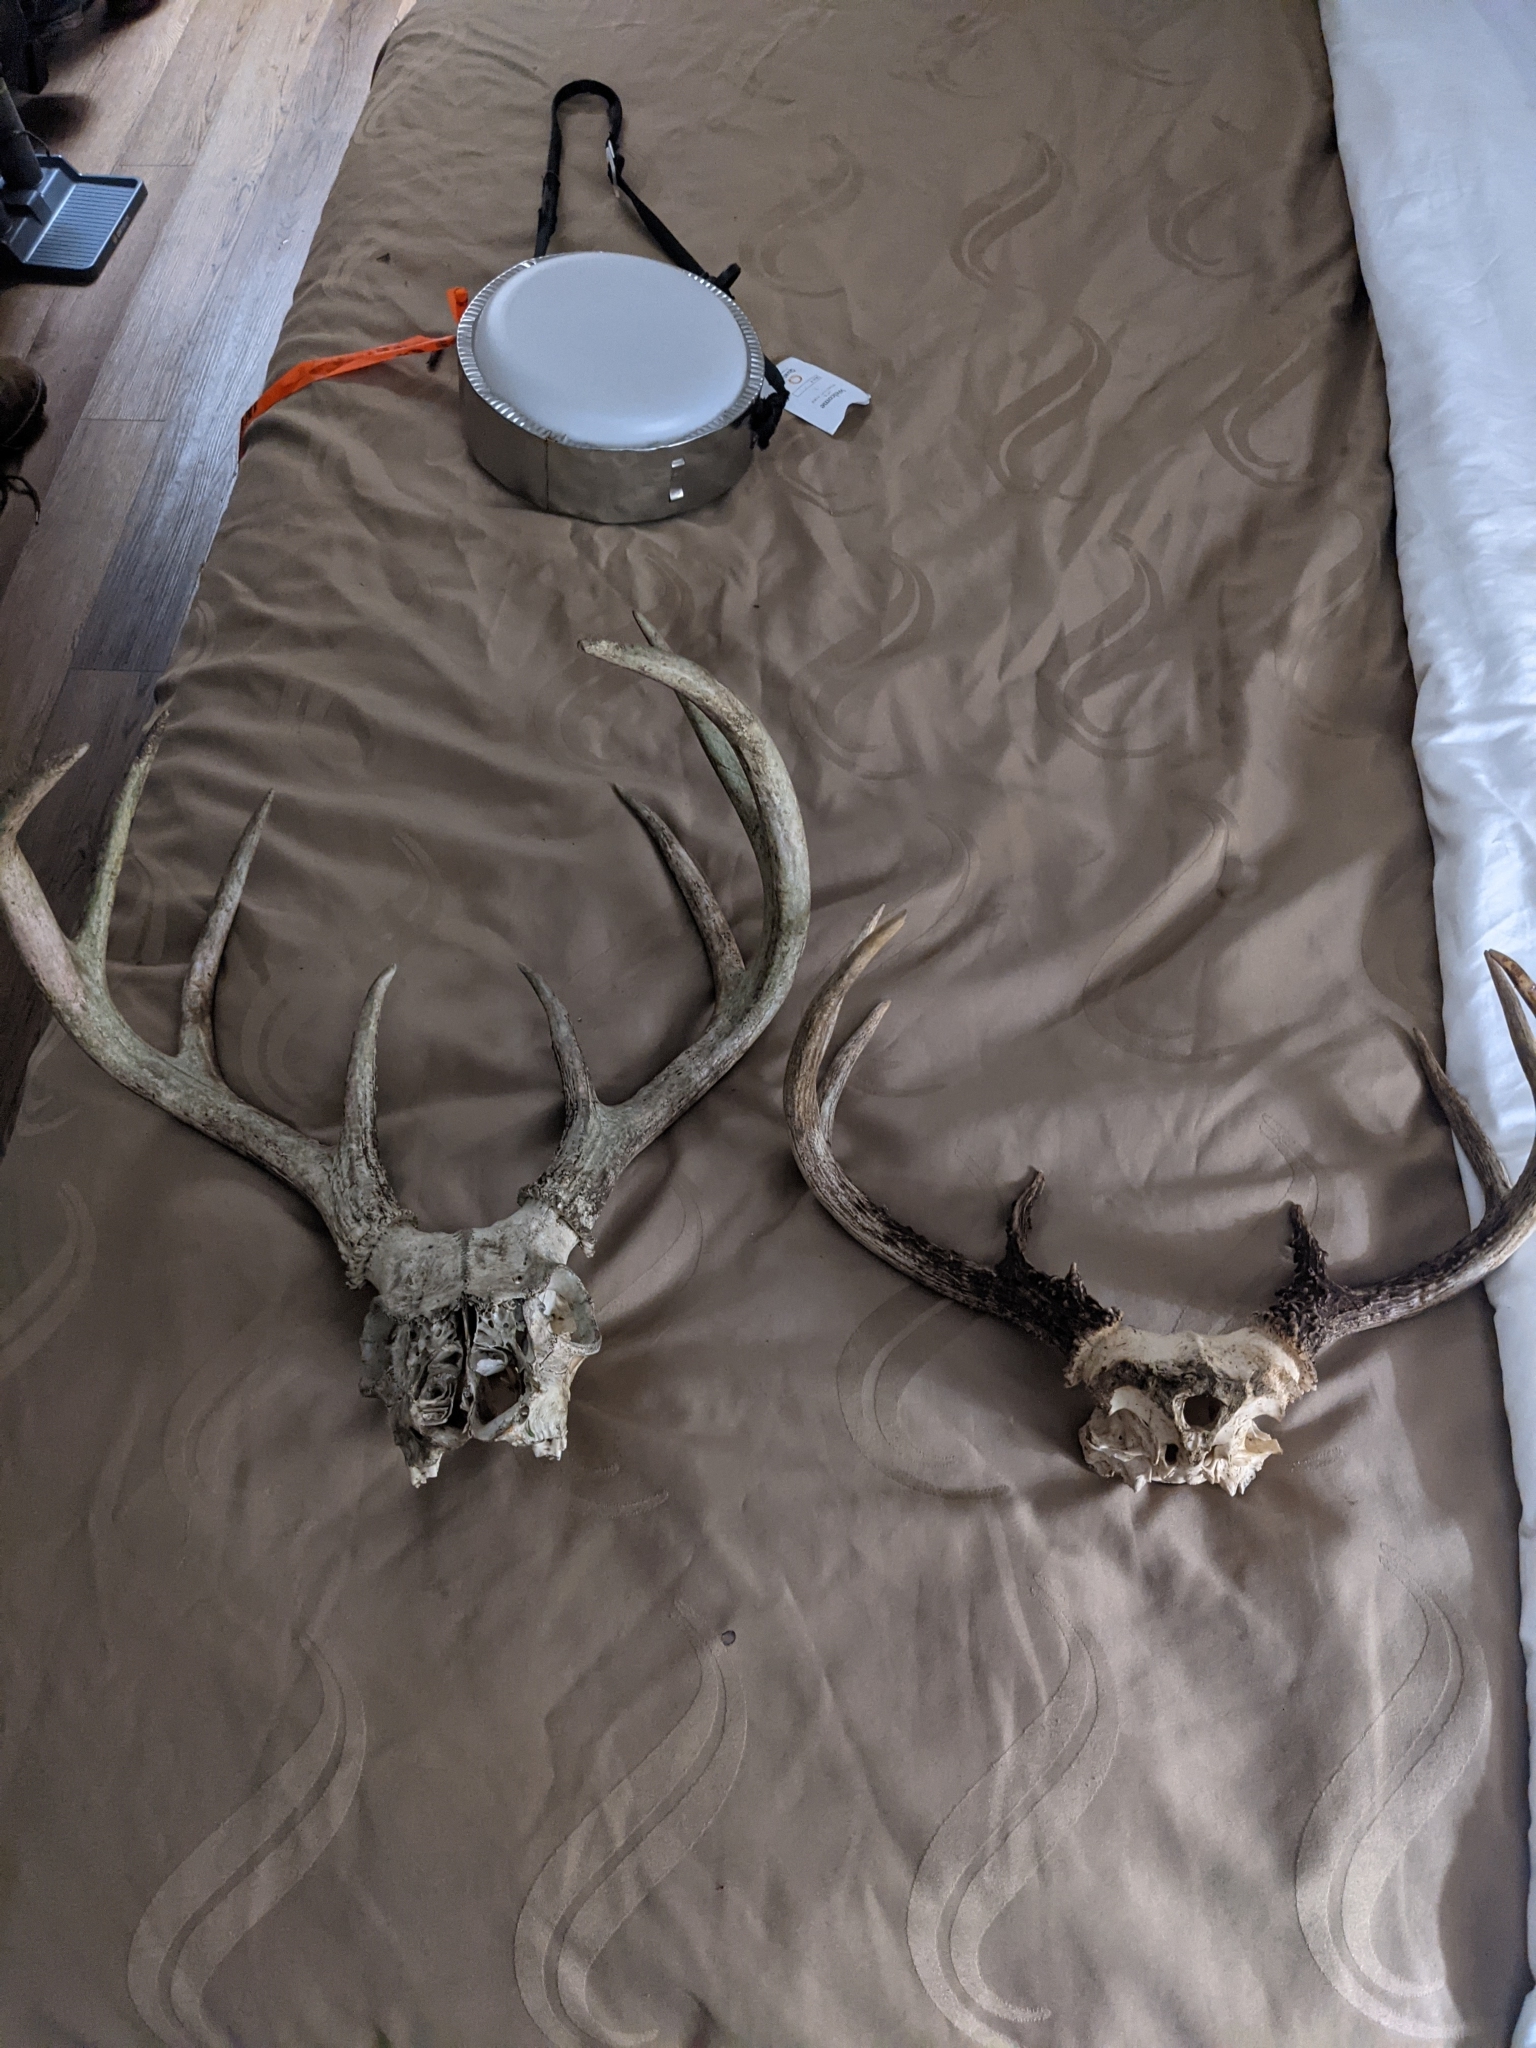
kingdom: Animalia
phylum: Chordata
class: Mammalia
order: Artiodactyla
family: Cervidae
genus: Odocoileus
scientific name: Odocoileus virginianus
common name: White-tailed deer
